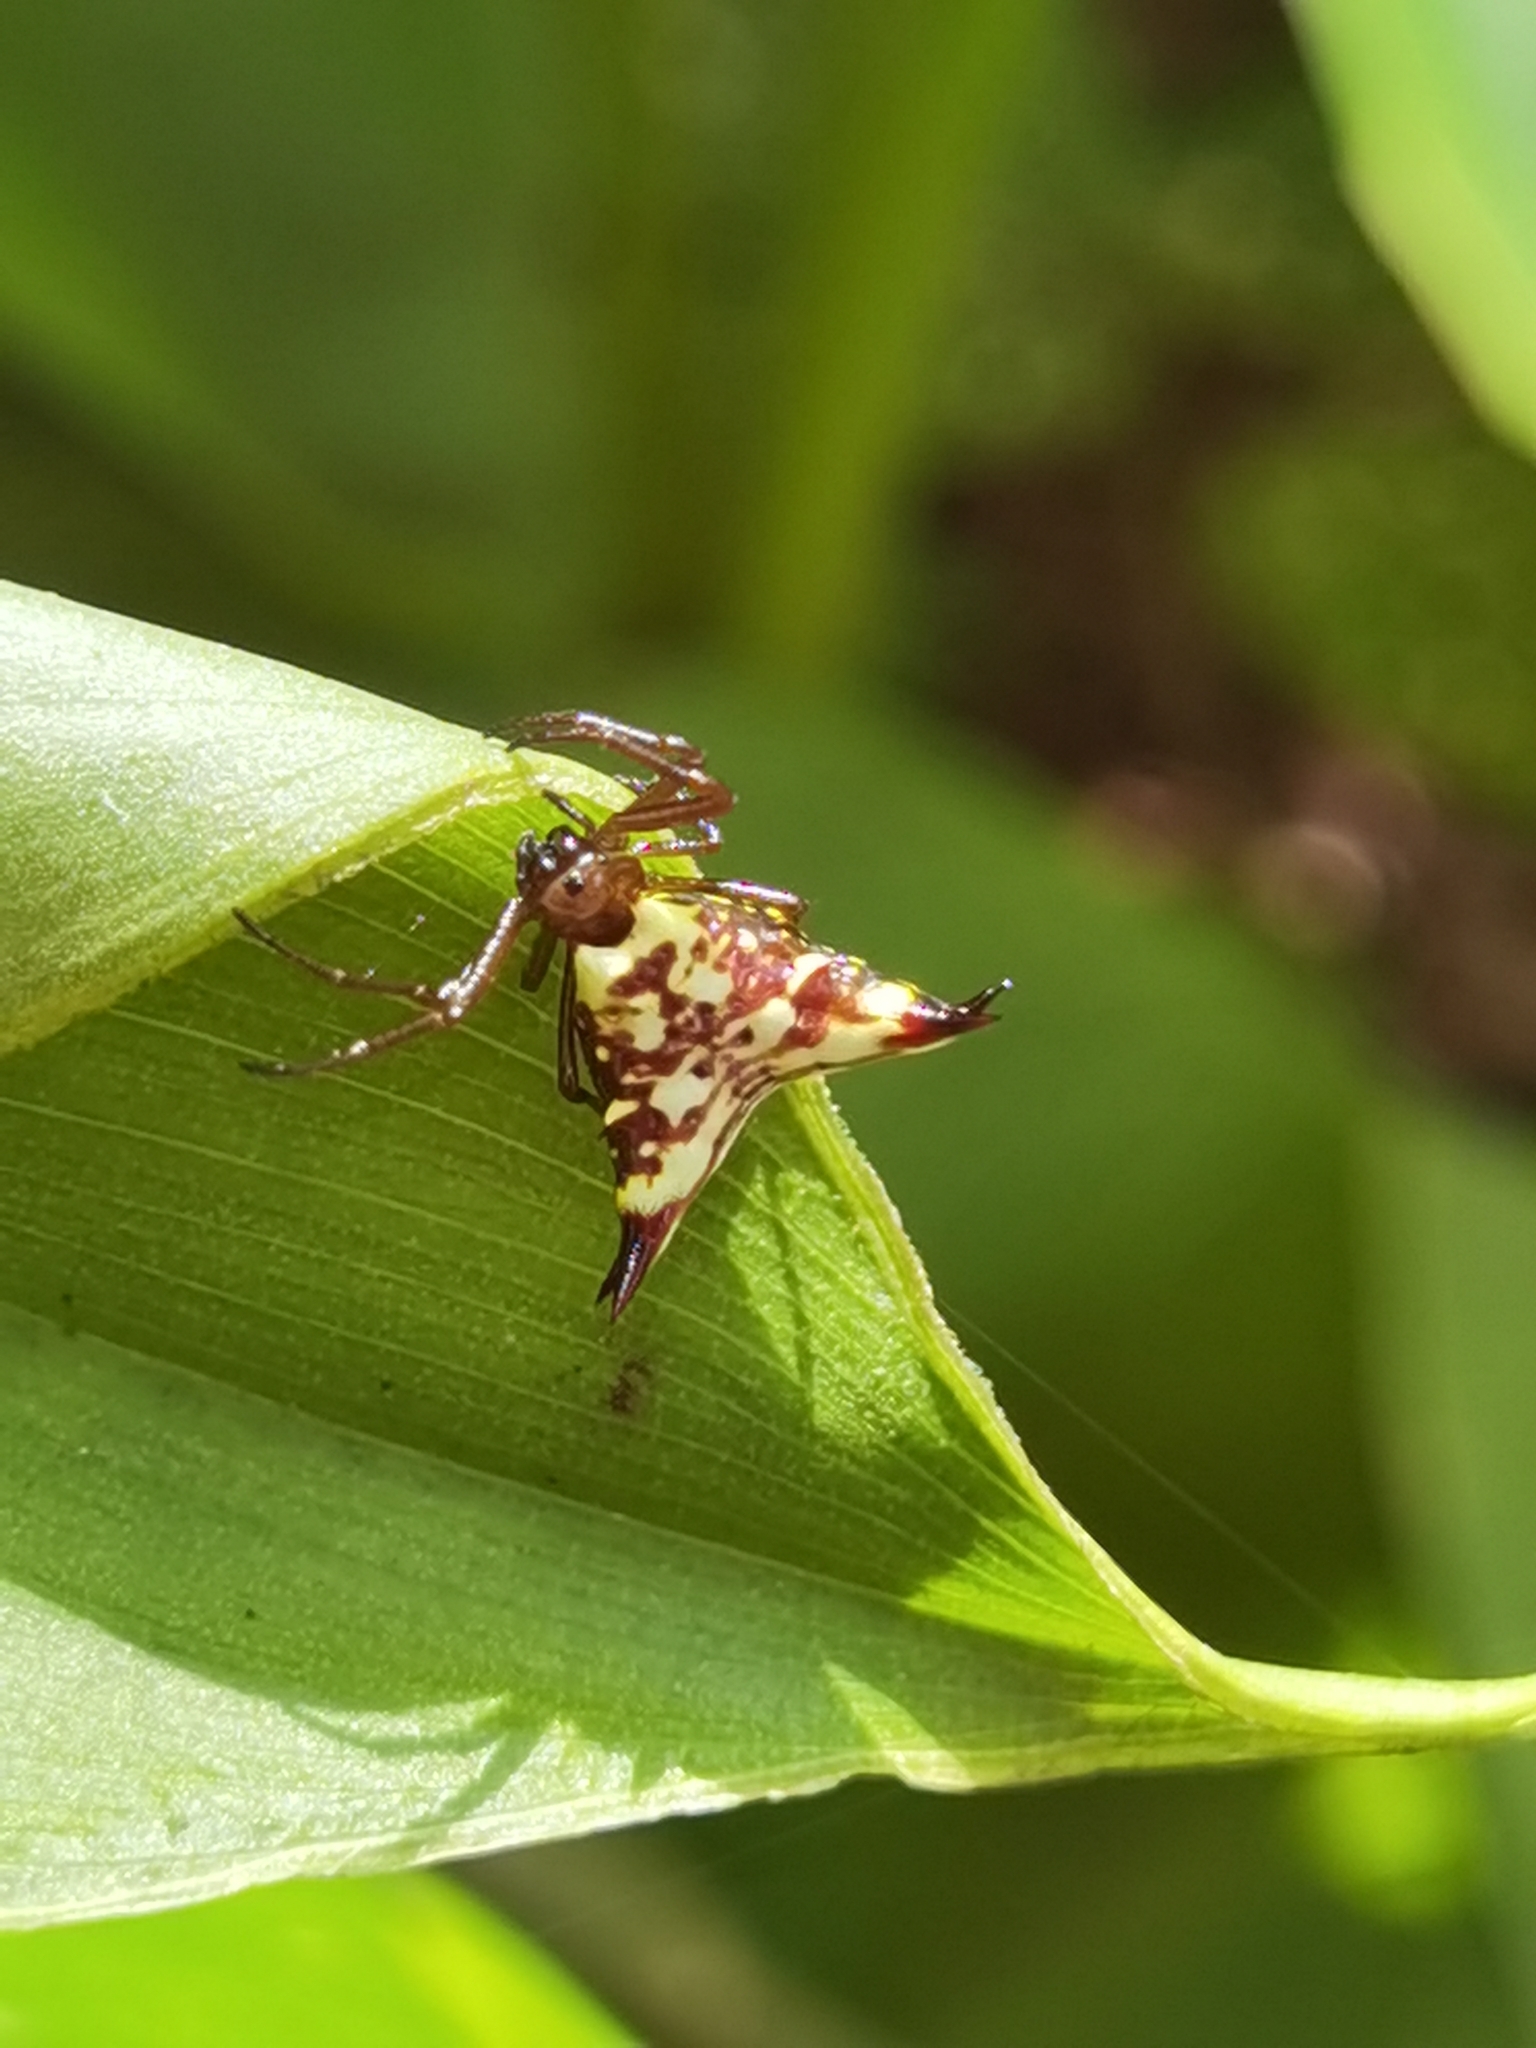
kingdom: Animalia
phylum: Arthropoda
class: Arachnida
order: Araneae
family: Araneidae
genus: Micrathena
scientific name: Micrathena lucasi
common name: Orb weavers
